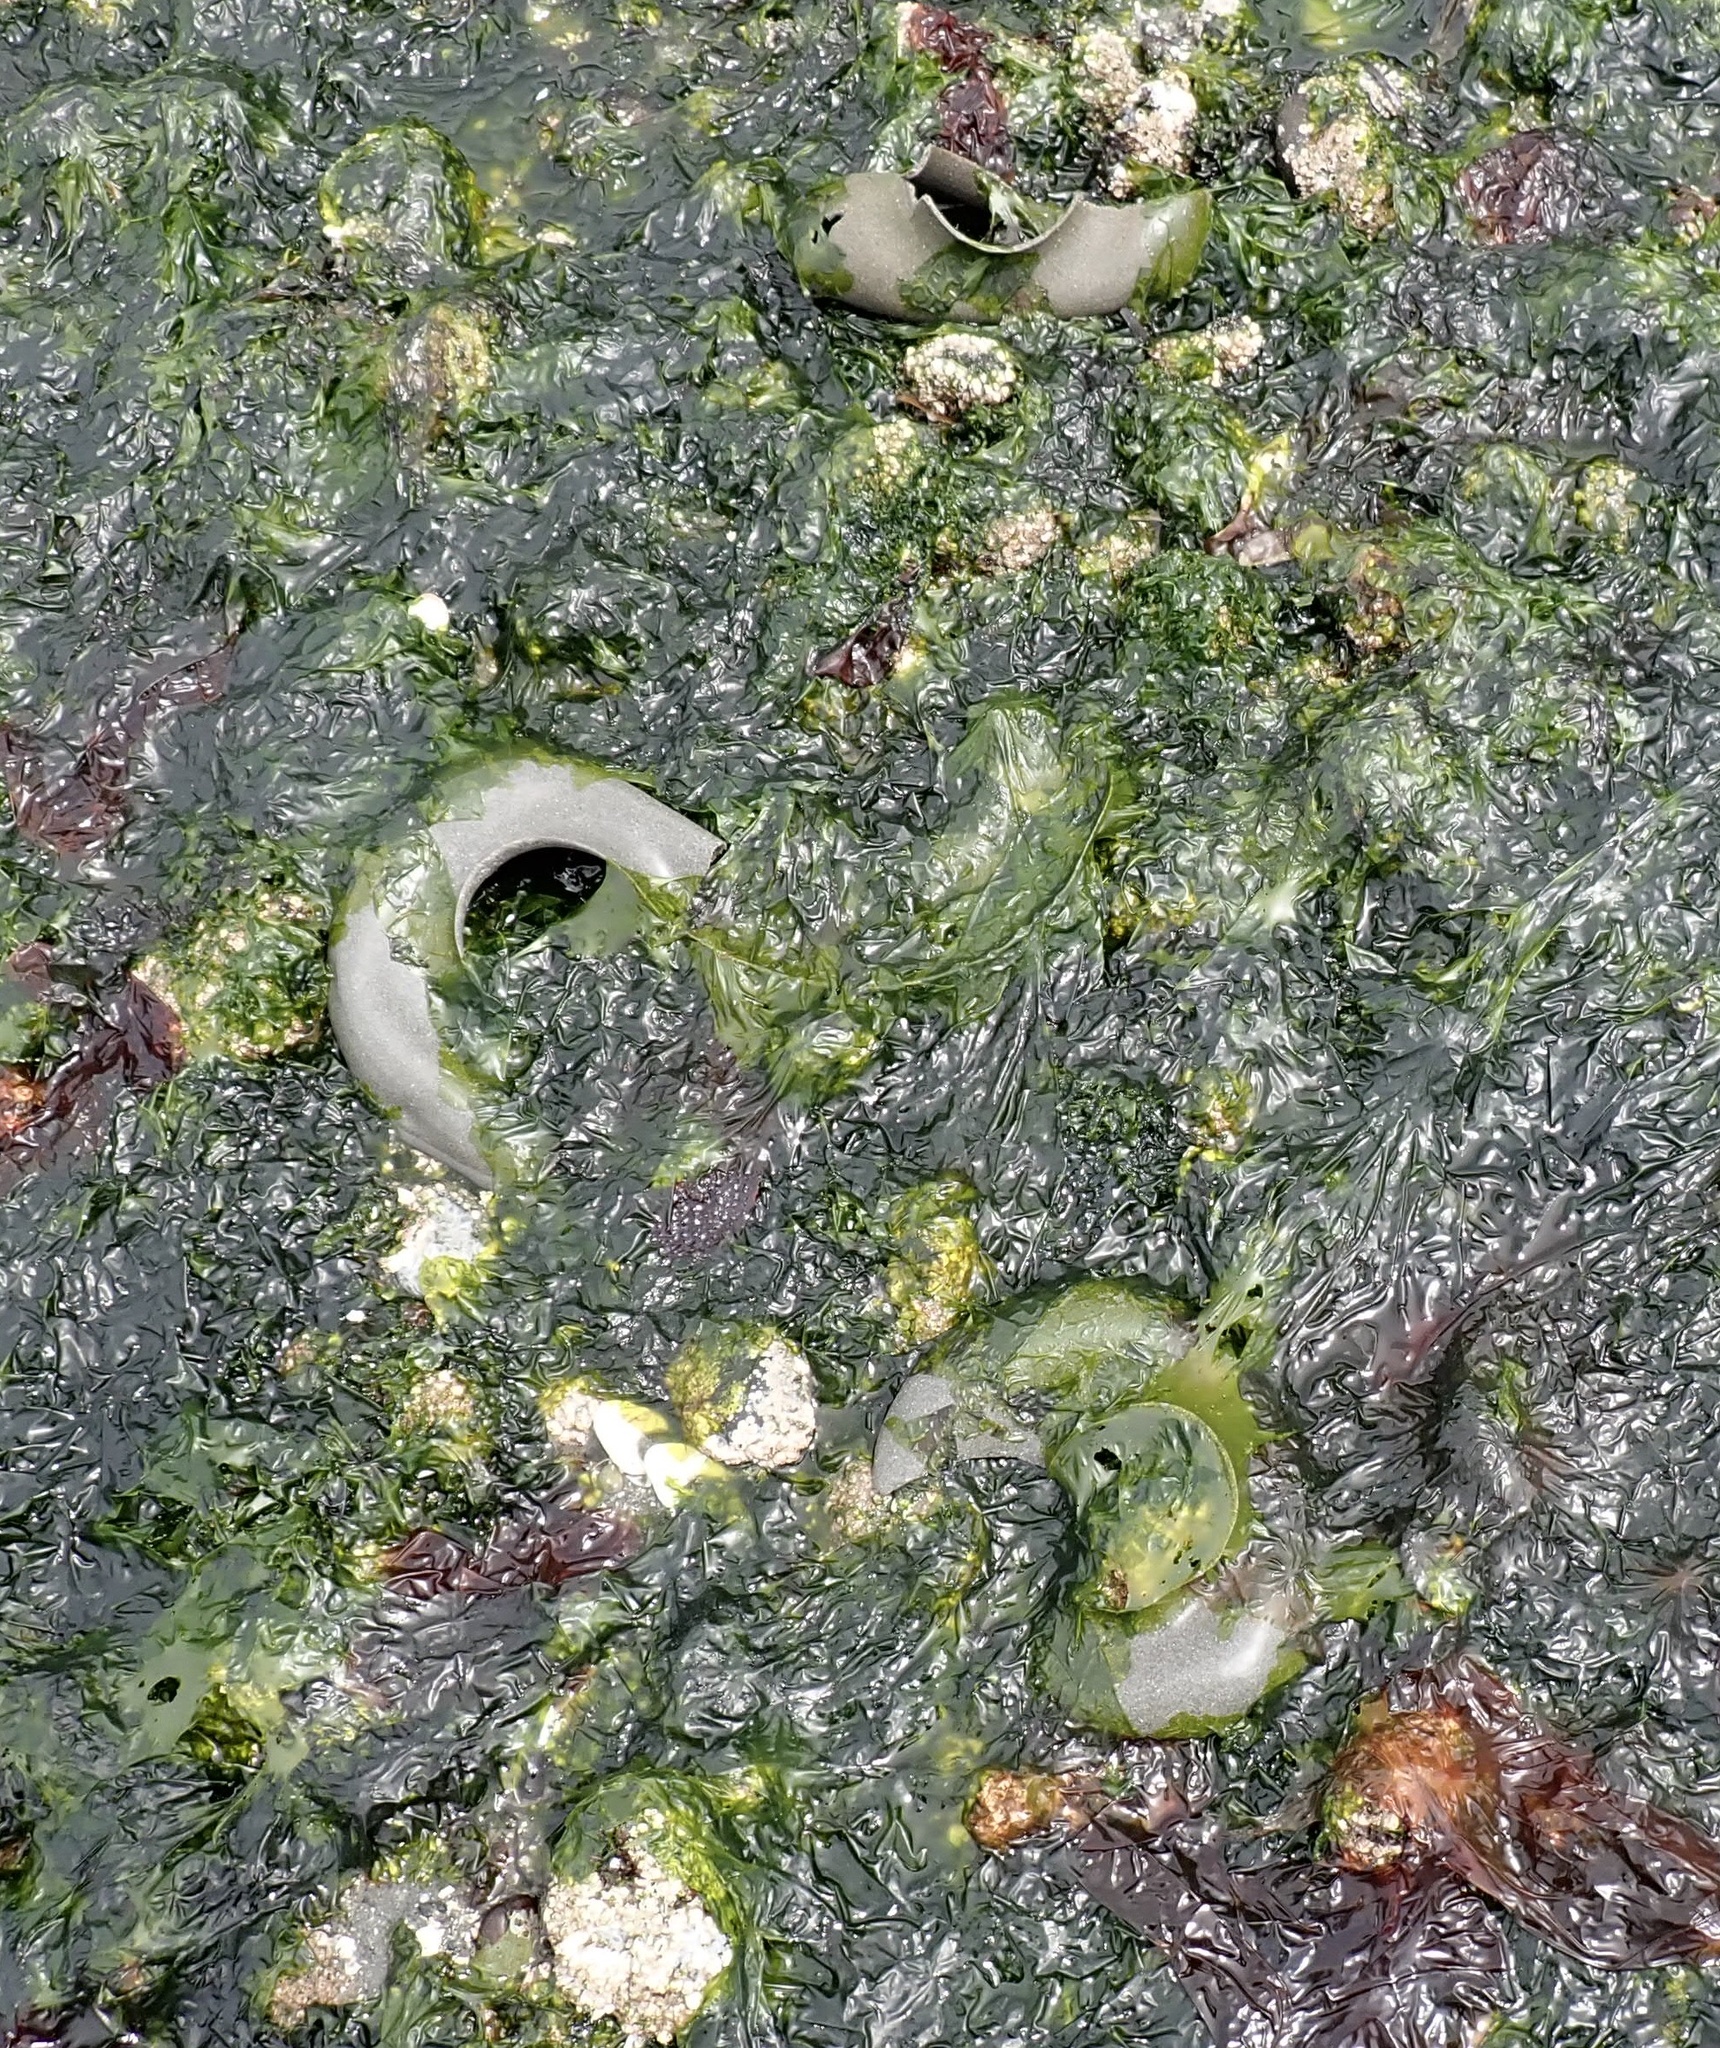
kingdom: Animalia
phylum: Mollusca
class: Gastropoda
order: Littorinimorpha
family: Naticidae
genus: Neverita
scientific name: Neverita lewisii
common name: Lewis' moonsnail
